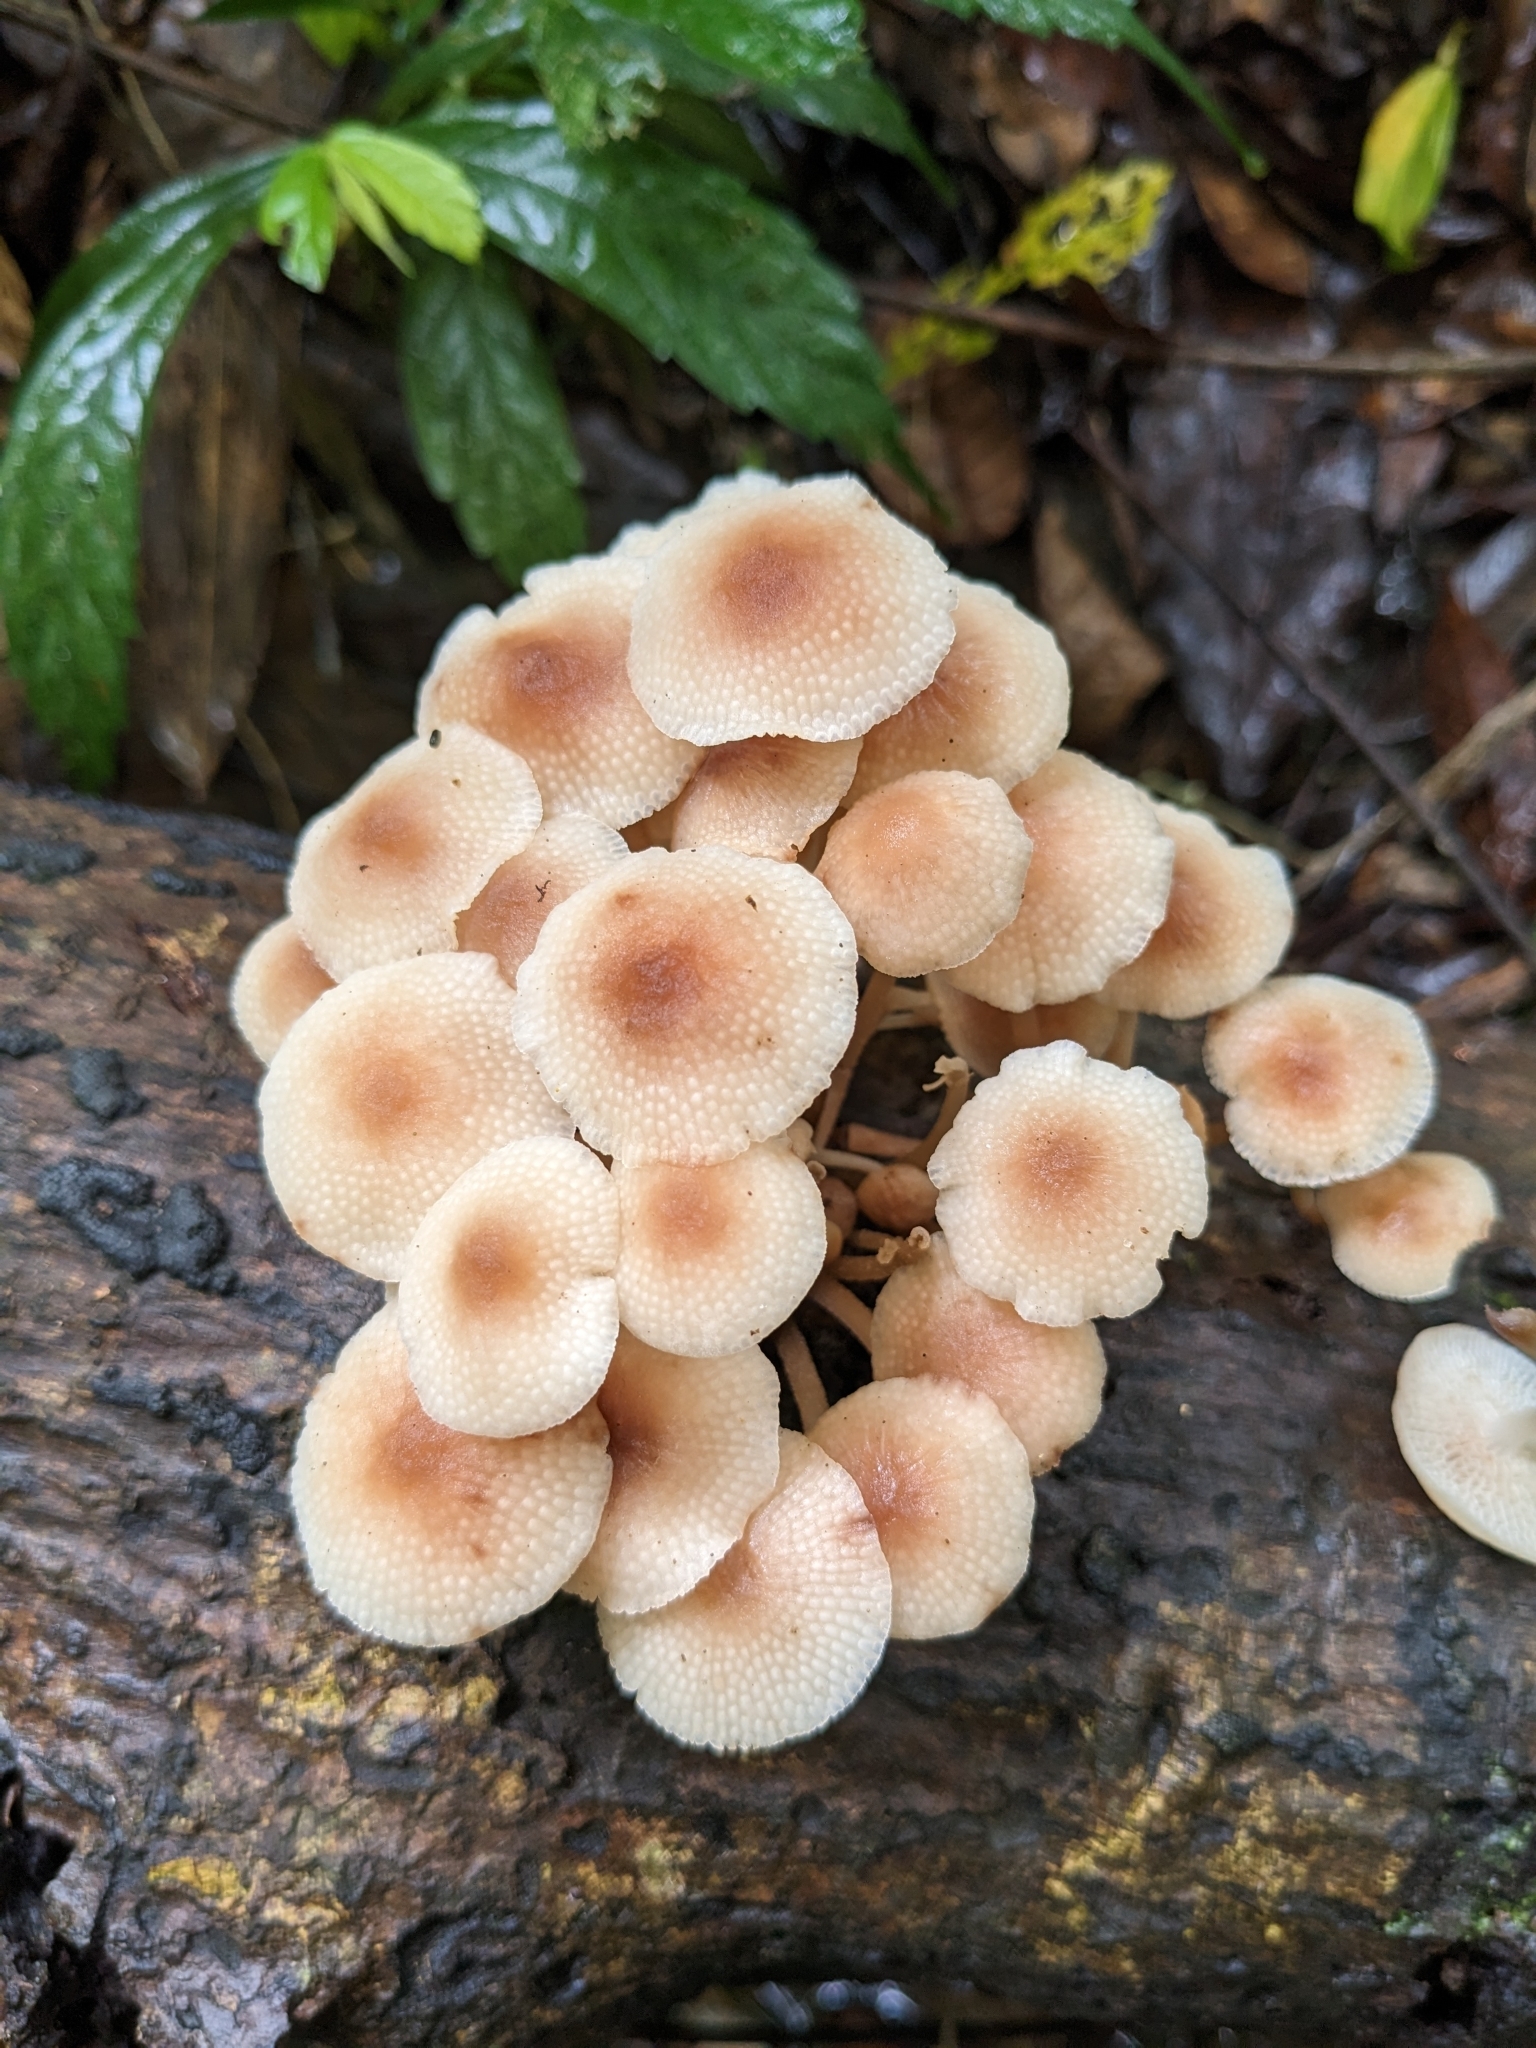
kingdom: Fungi
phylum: Basidiomycota
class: Agaricomycetes
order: Agaricales
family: Mycenaceae
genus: Filoboletus
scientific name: Filoboletus manipularis
